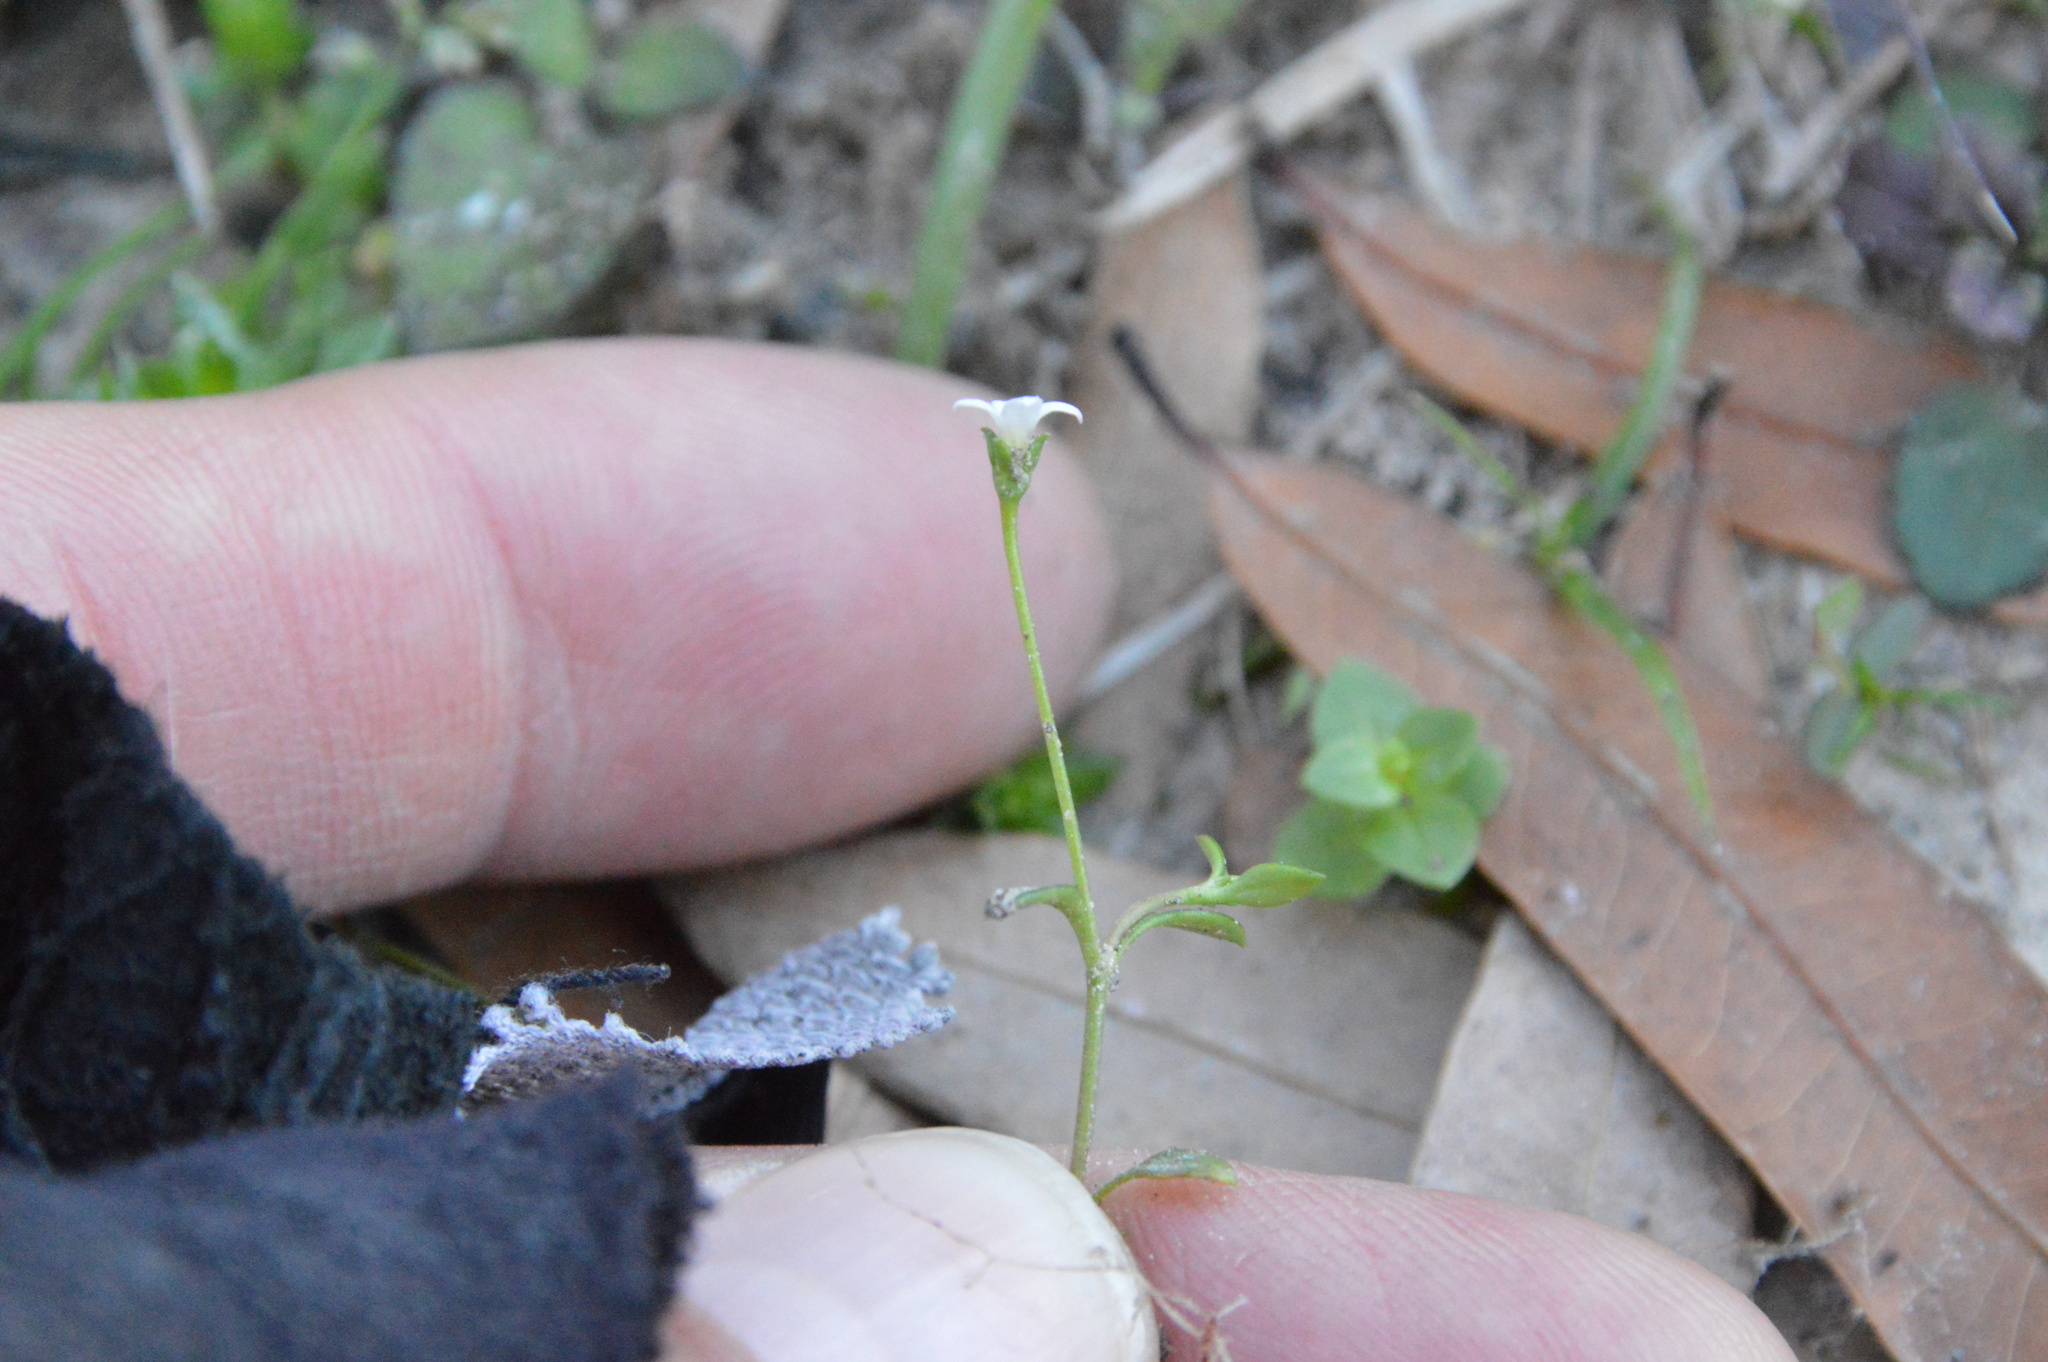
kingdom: Plantae
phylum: Tracheophyta
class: Magnoliopsida
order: Gentianales
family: Rubiaceae
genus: Houstonia
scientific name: Houstonia micrantha
